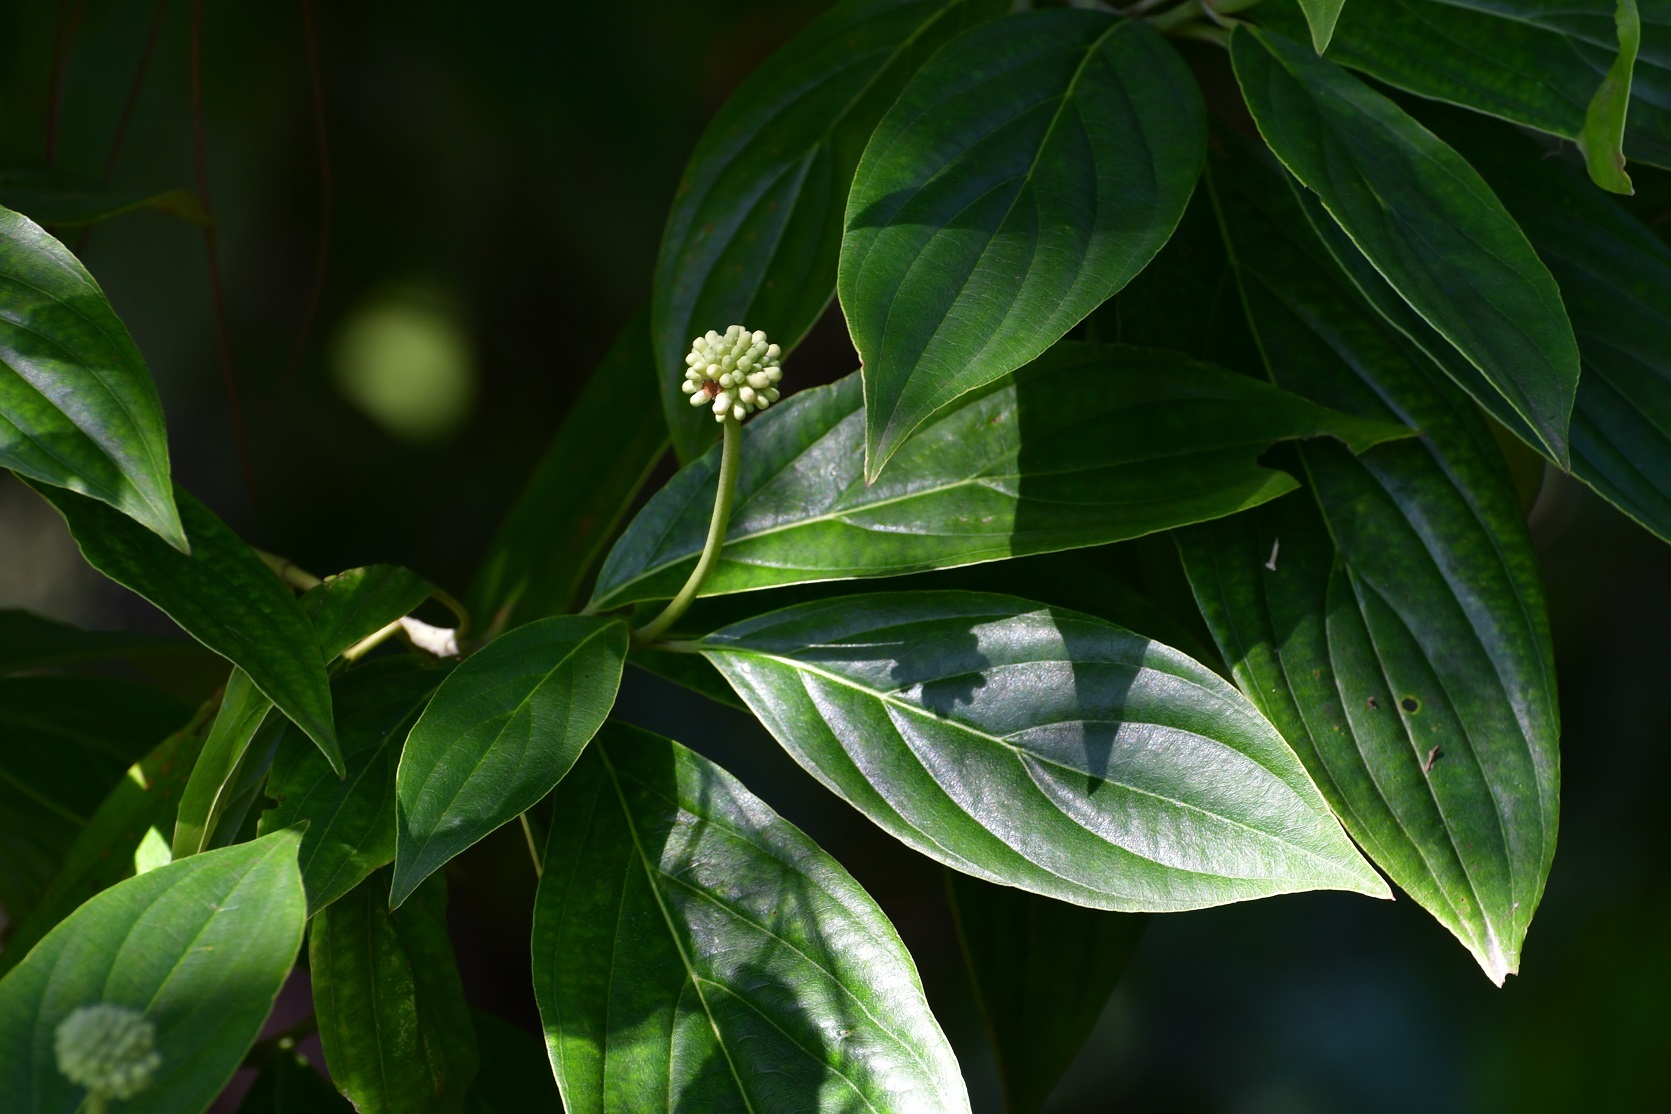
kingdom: Plantae
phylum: Tracheophyta
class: Magnoliopsida
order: Cornales
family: Cornaceae
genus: Cornus
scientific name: Cornus disciflora
